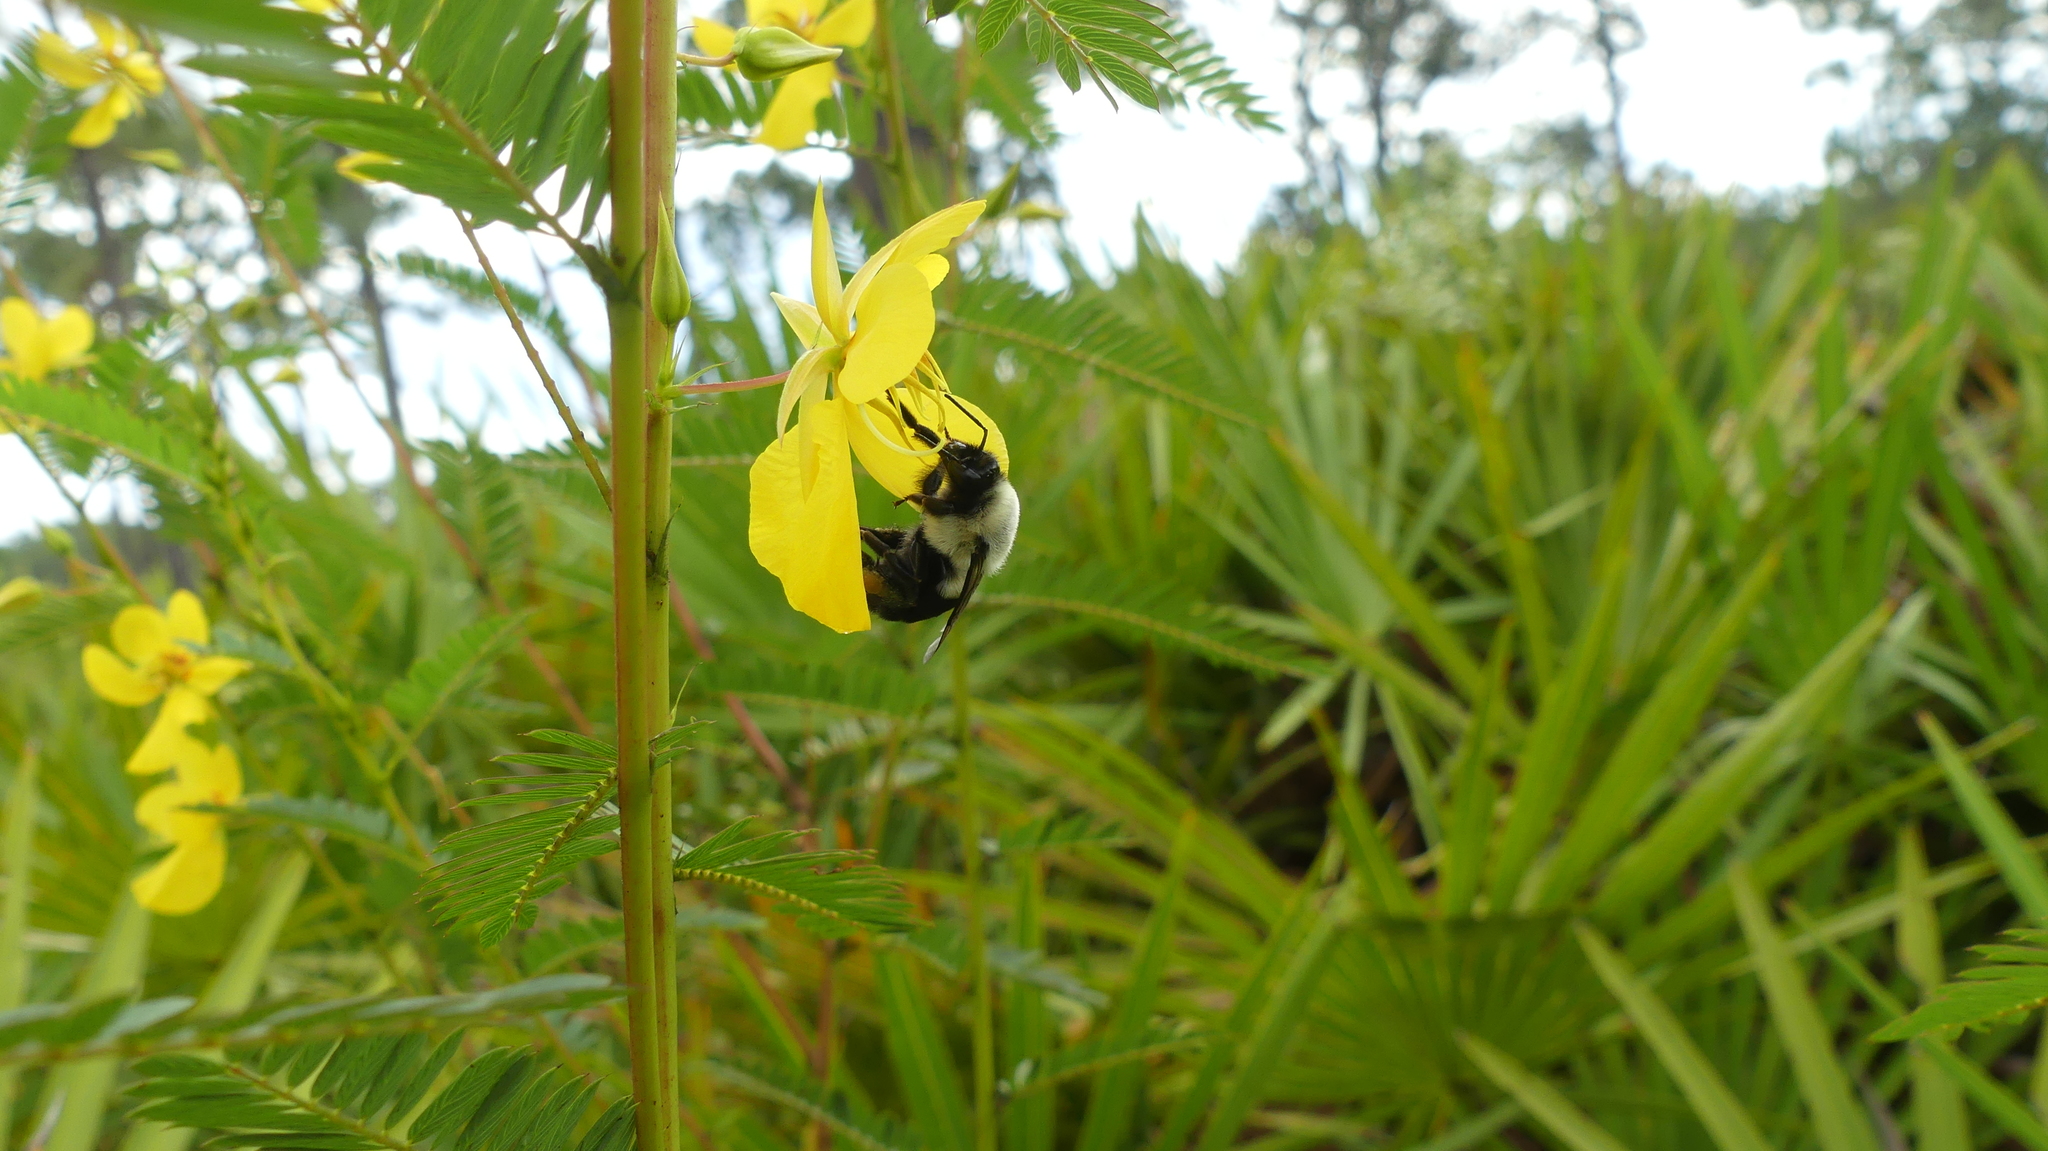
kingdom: Animalia
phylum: Arthropoda
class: Insecta
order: Hymenoptera
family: Apidae
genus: Bombus
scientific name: Bombus impatiens
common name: Common eastern bumble bee
